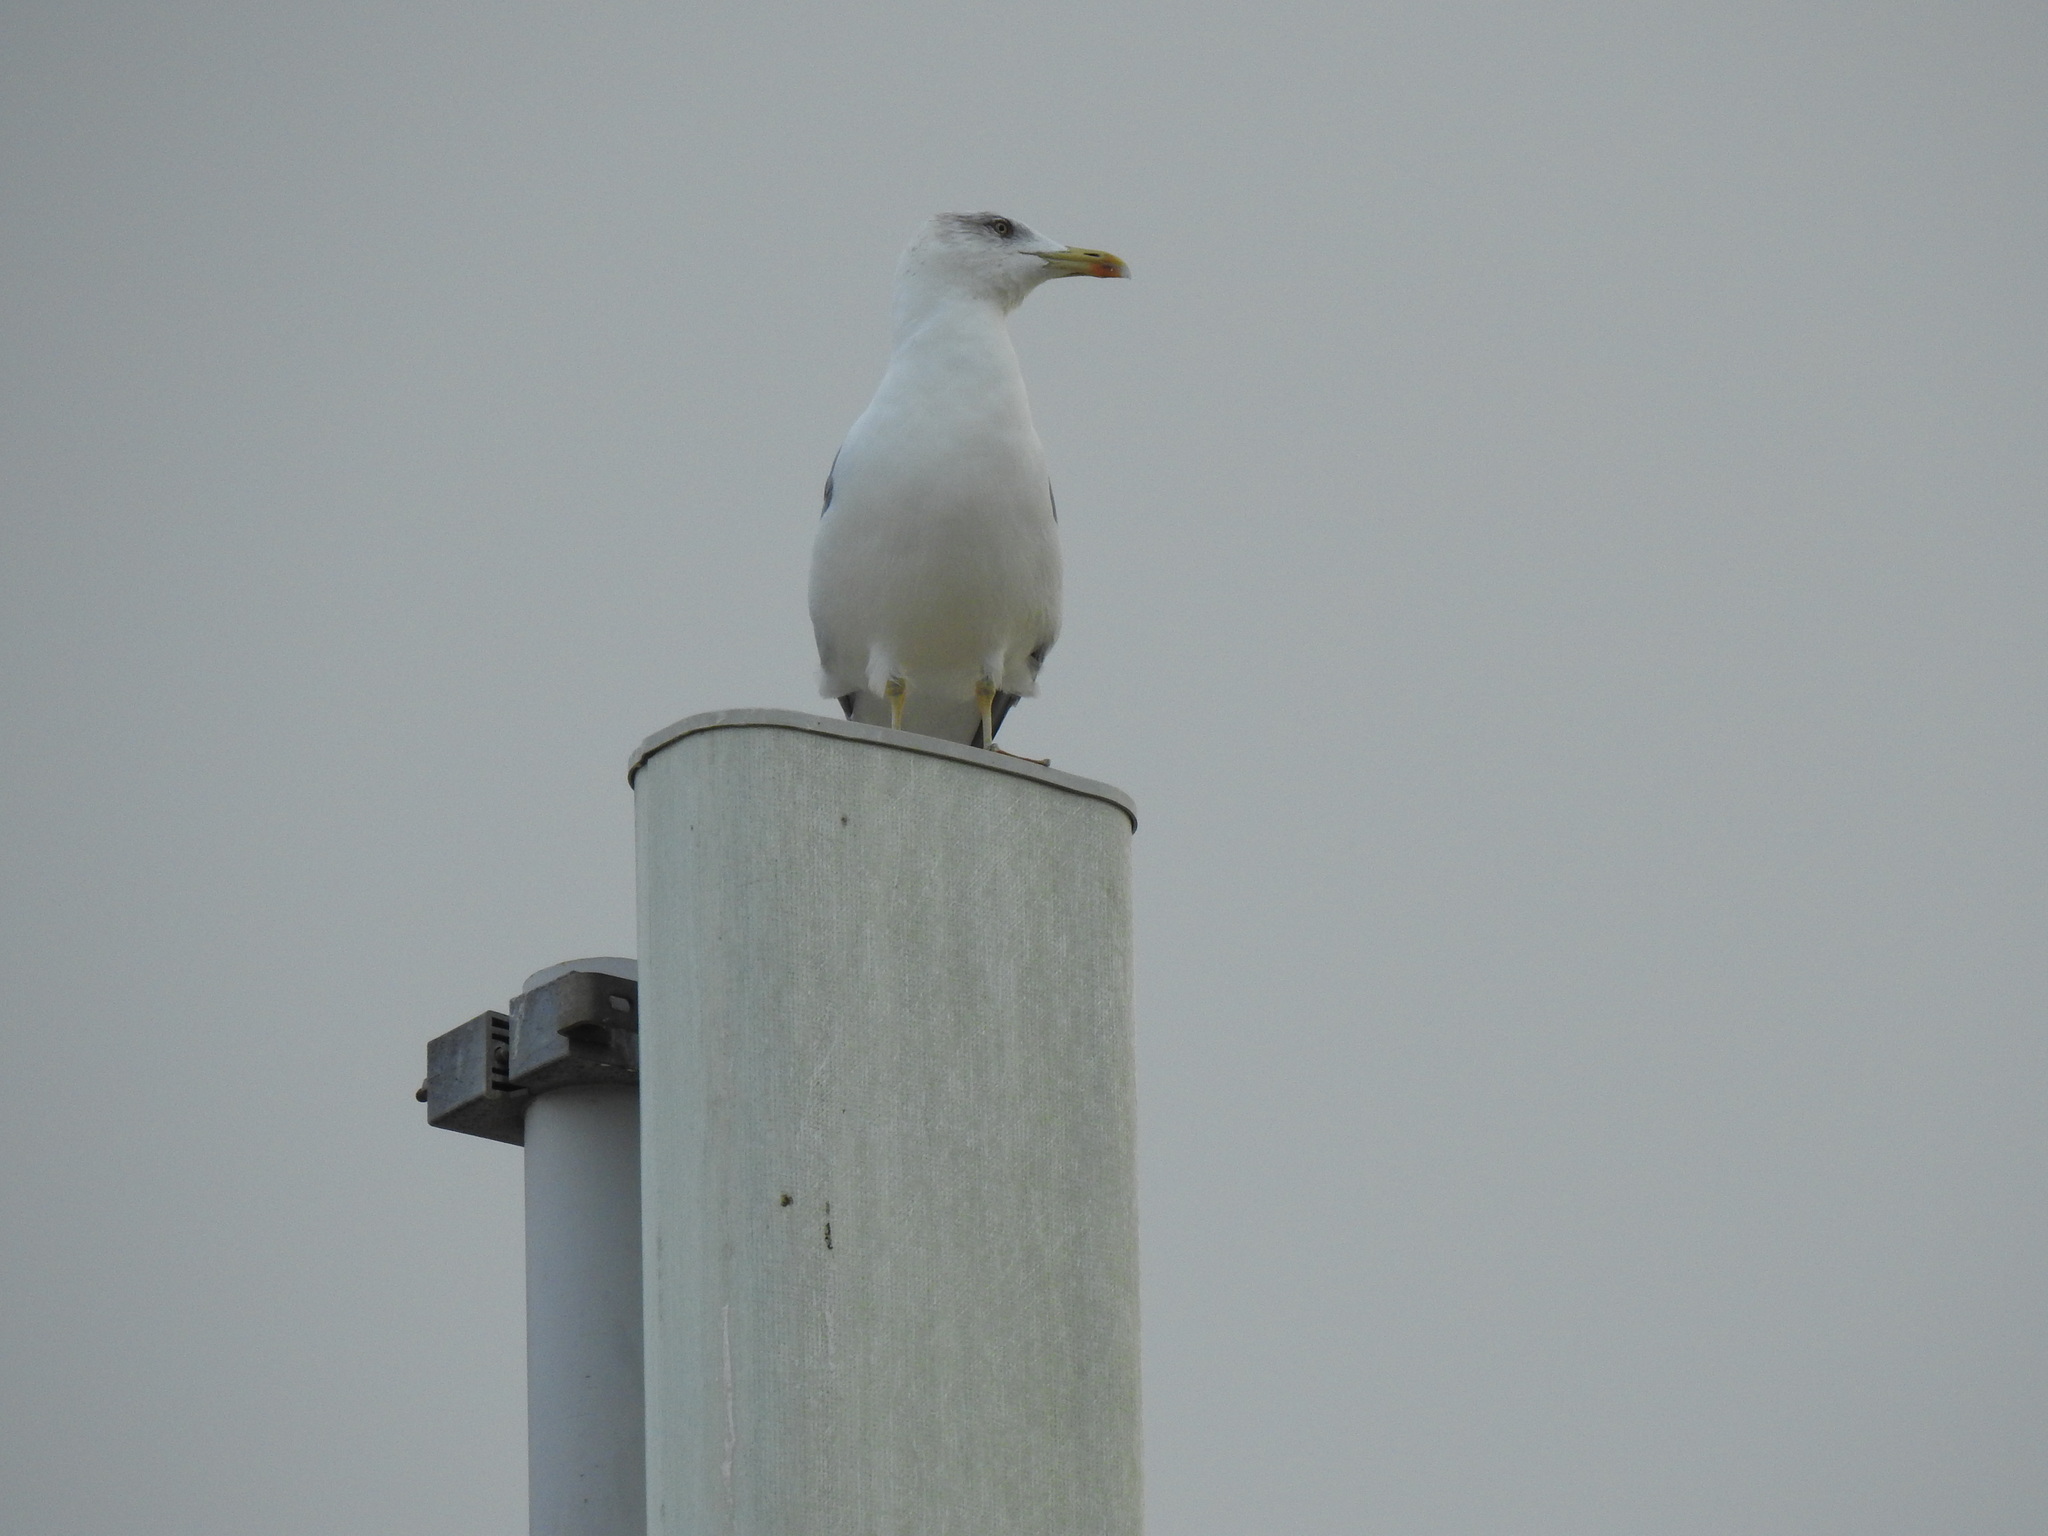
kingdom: Animalia
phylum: Chordata
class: Aves
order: Charadriiformes
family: Laridae
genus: Larus
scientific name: Larus michahellis
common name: Yellow-legged gull
